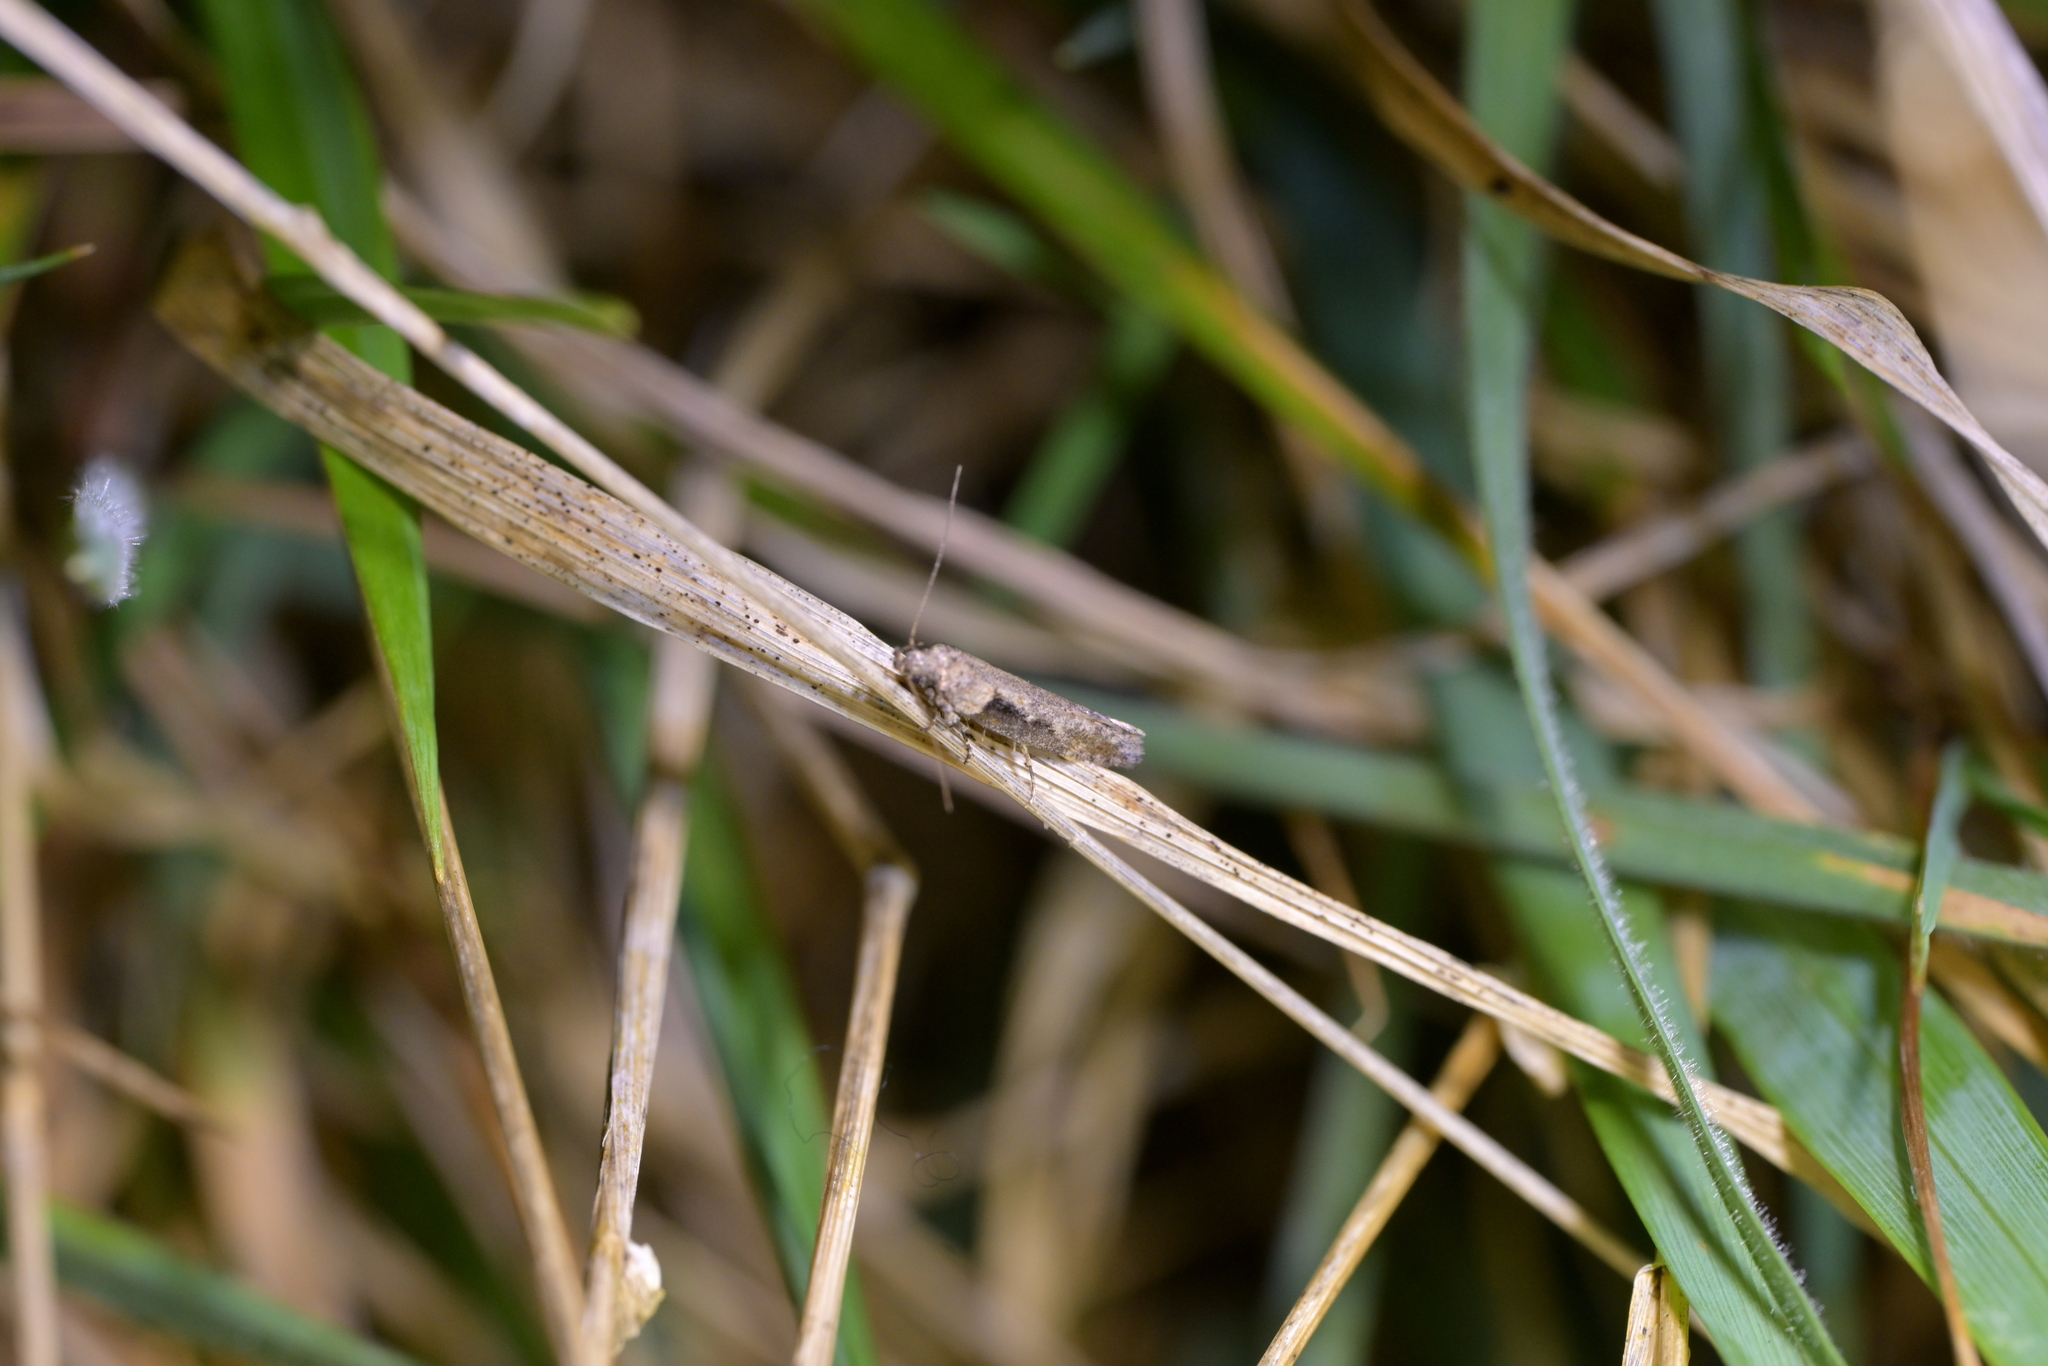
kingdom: Animalia
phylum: Arthropoda
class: Insecta
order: Lepidoptera
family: Gelechiidae
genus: Symmetrischema
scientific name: Symmetrischema tangolias
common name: Moth
